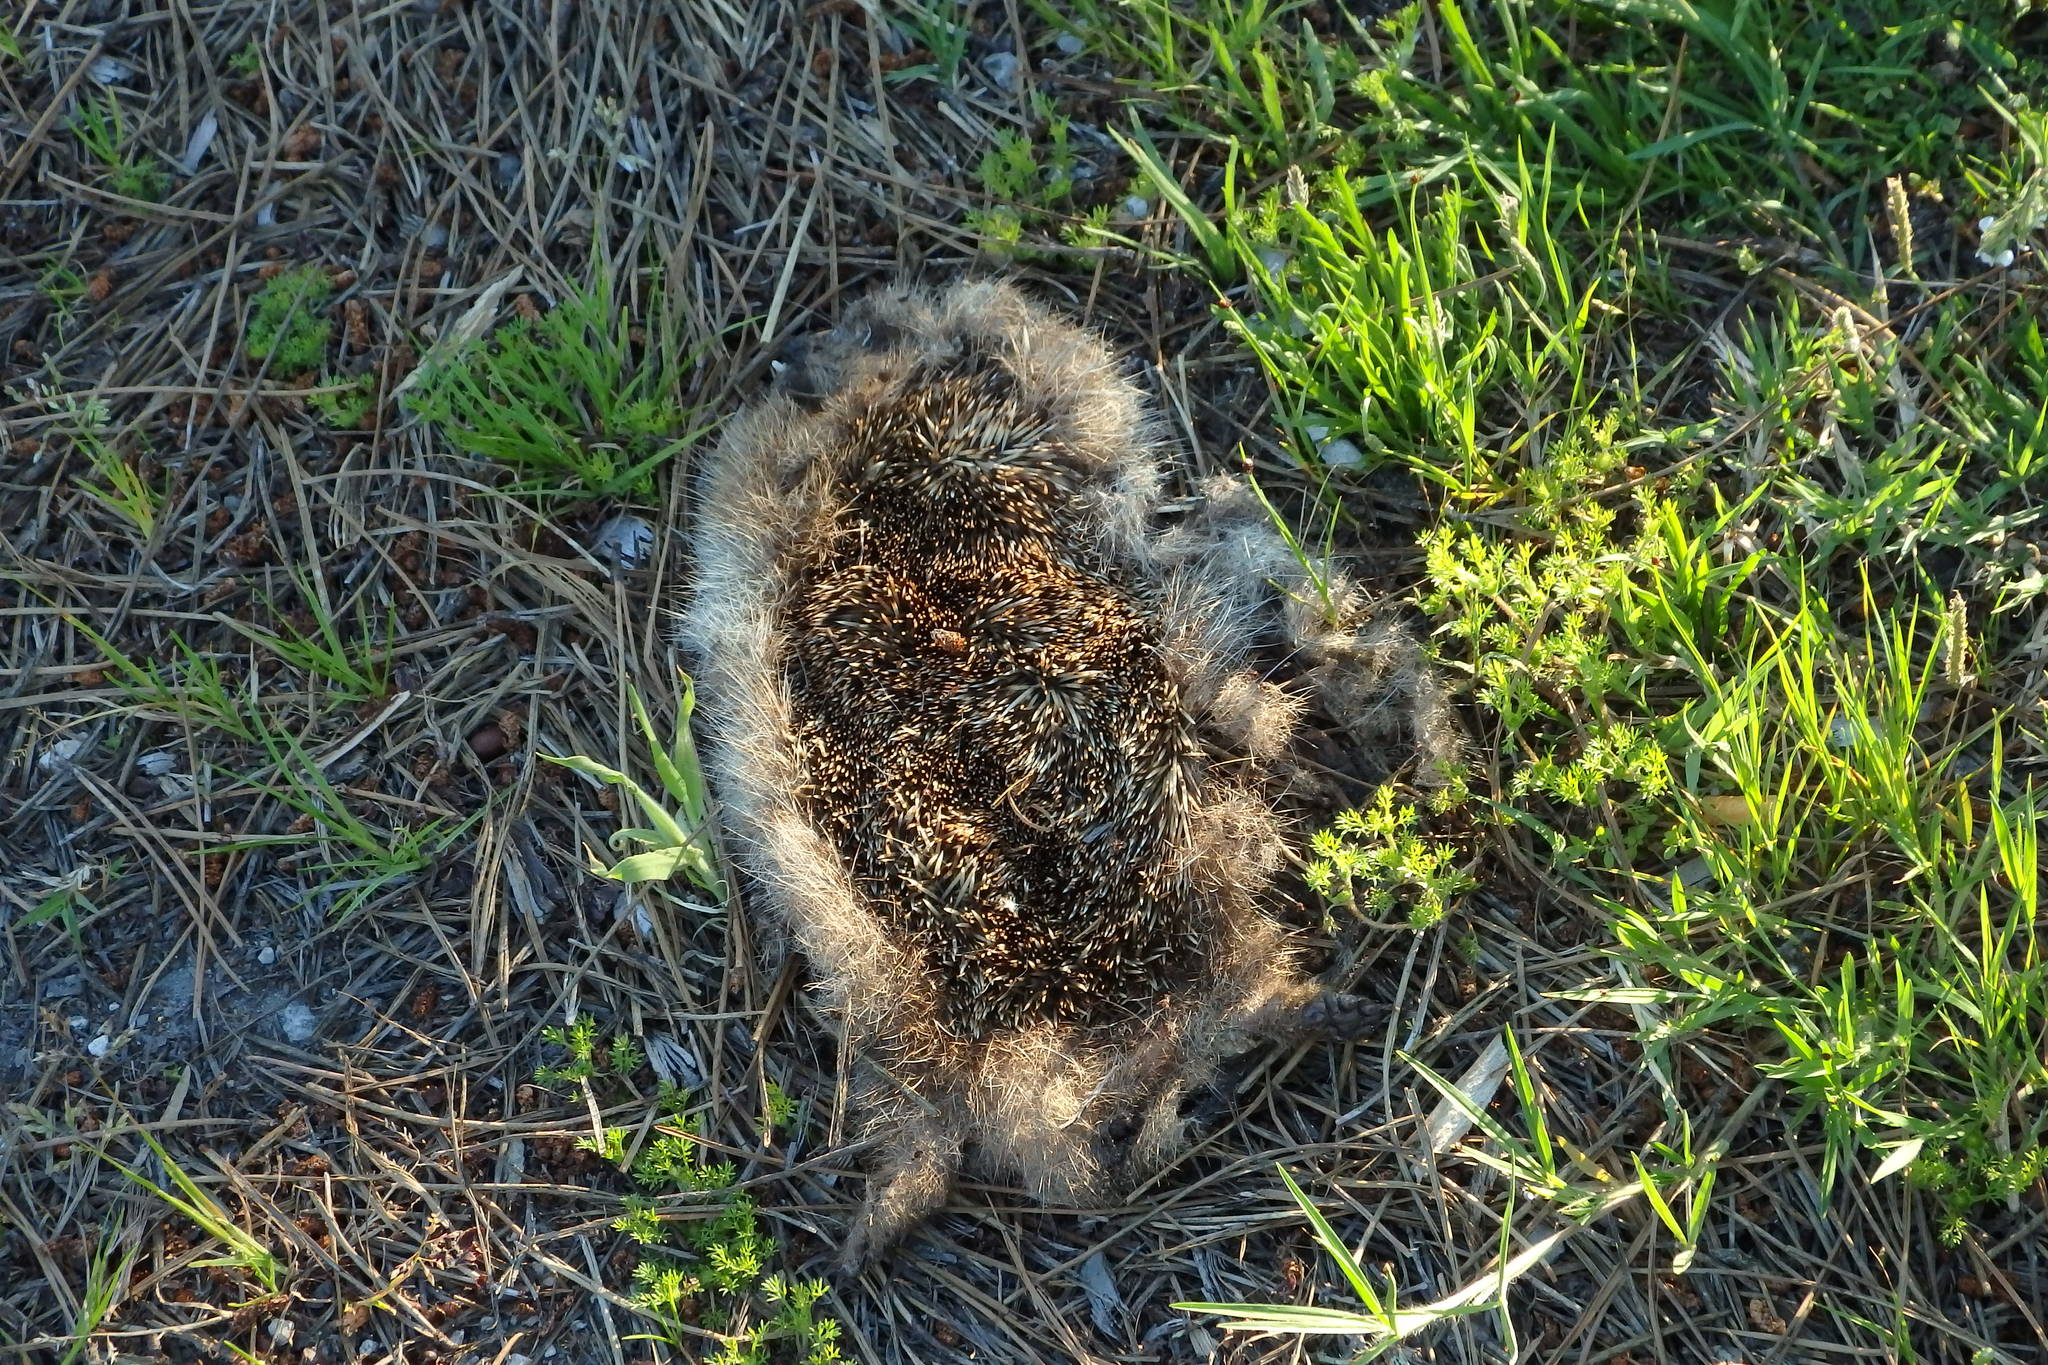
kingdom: Animalia
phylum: Chordata
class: Mammalia
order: Erinaceomorpha
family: Erinaceidae
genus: Erinaceus
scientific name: Erinaceus europaeus
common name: West european hedgehog
